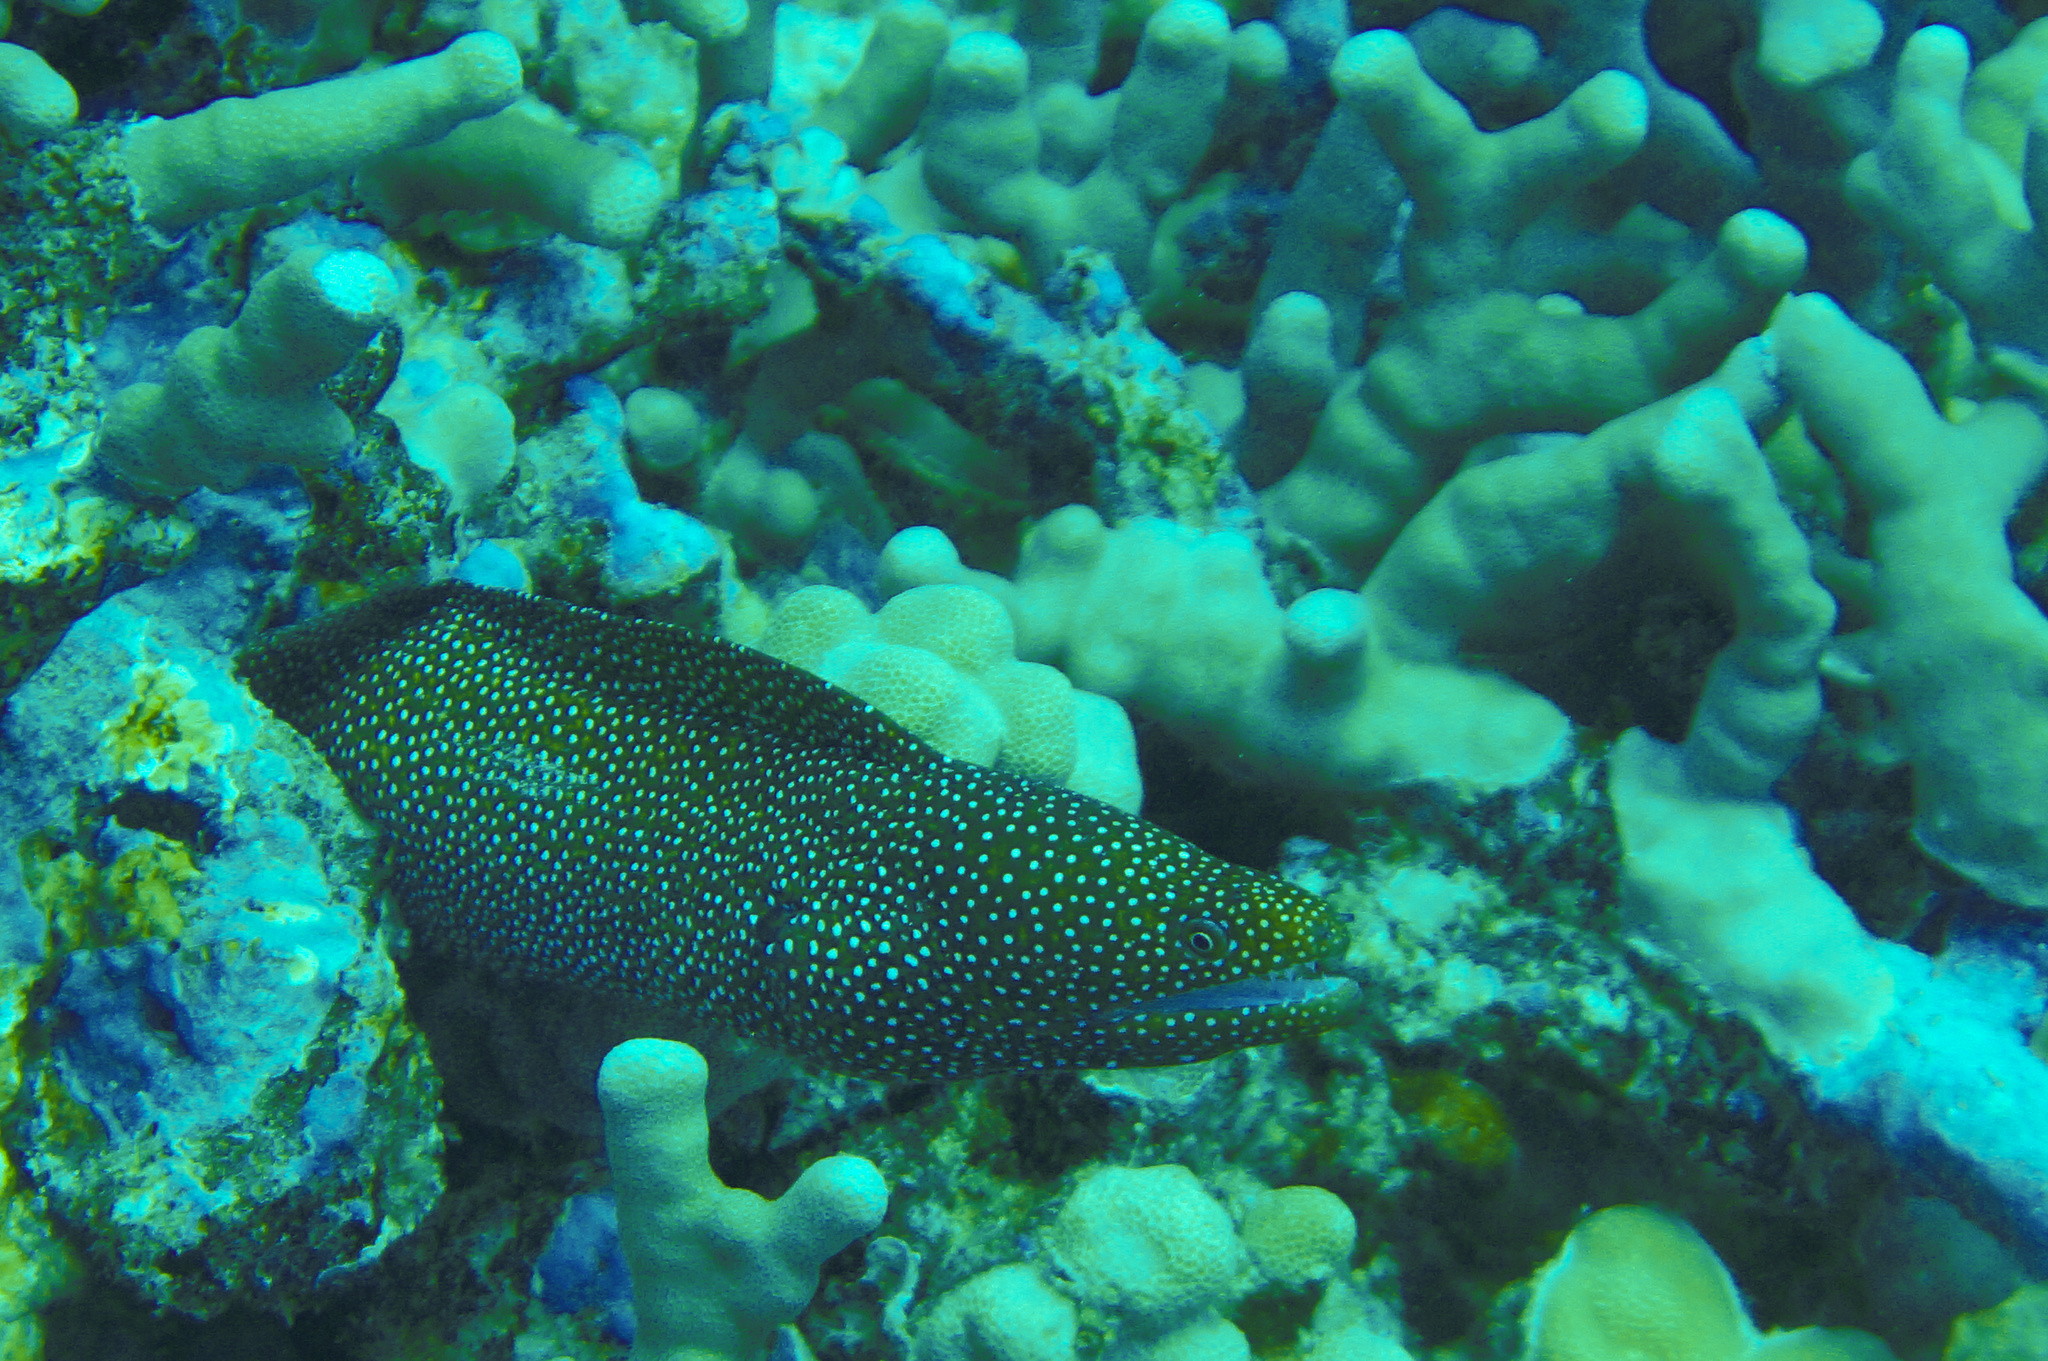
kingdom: Animalia
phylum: Chordata
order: Anguilliformes
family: Muraenidae
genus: Gymnothorax
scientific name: Gymnothorax meleagris
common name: Guineafowl moray
